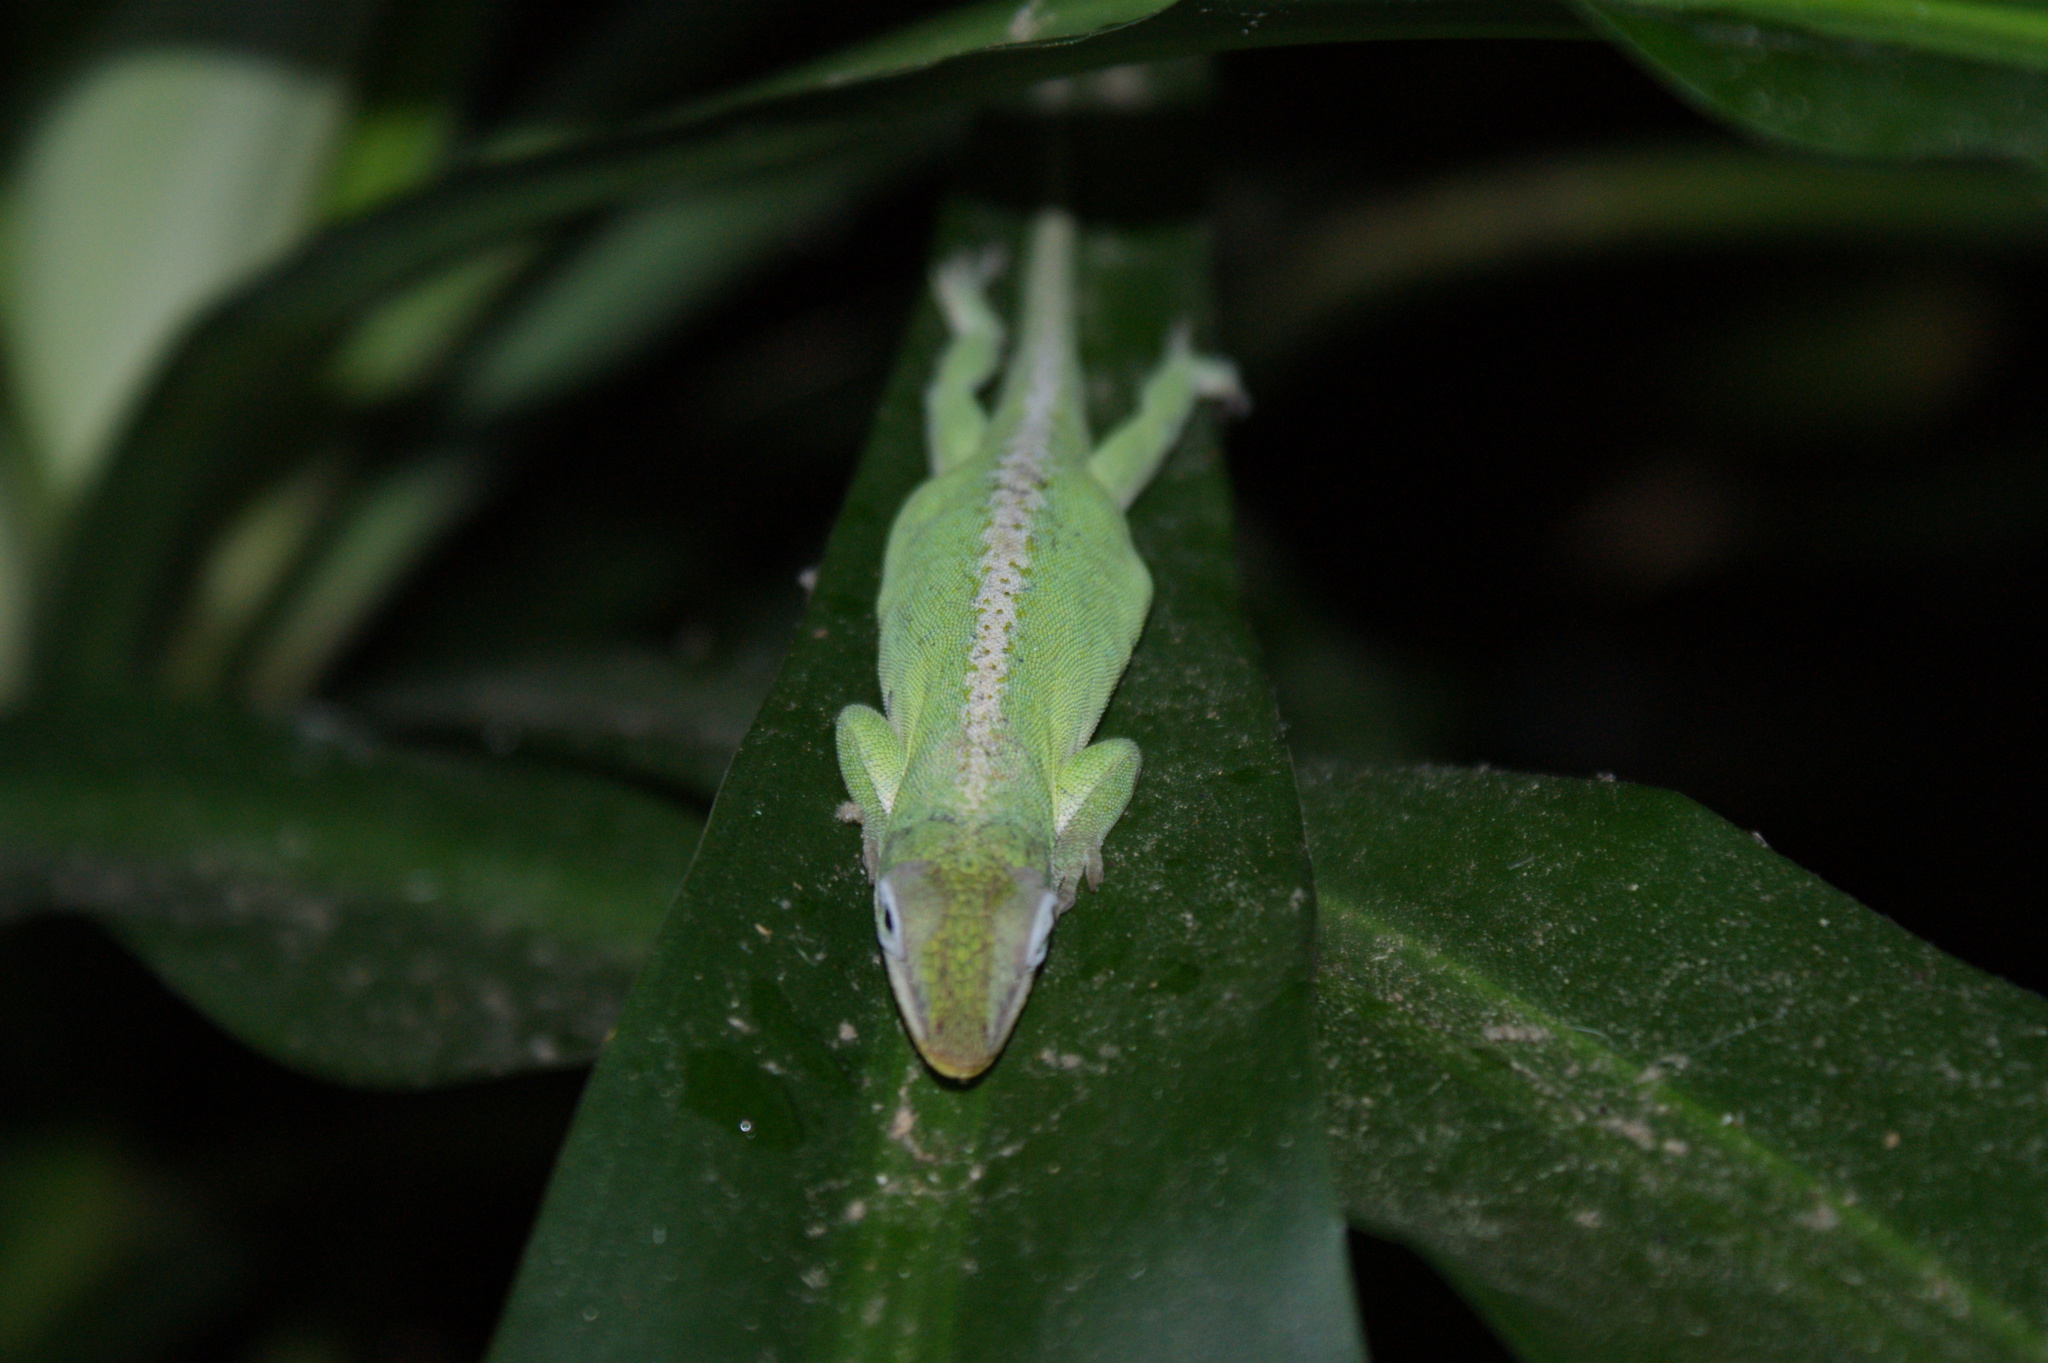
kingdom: Animalia
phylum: Chordata
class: Squamata
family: Dactyloidae
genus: Anolis
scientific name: Anolis carolinensis
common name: Green anole
